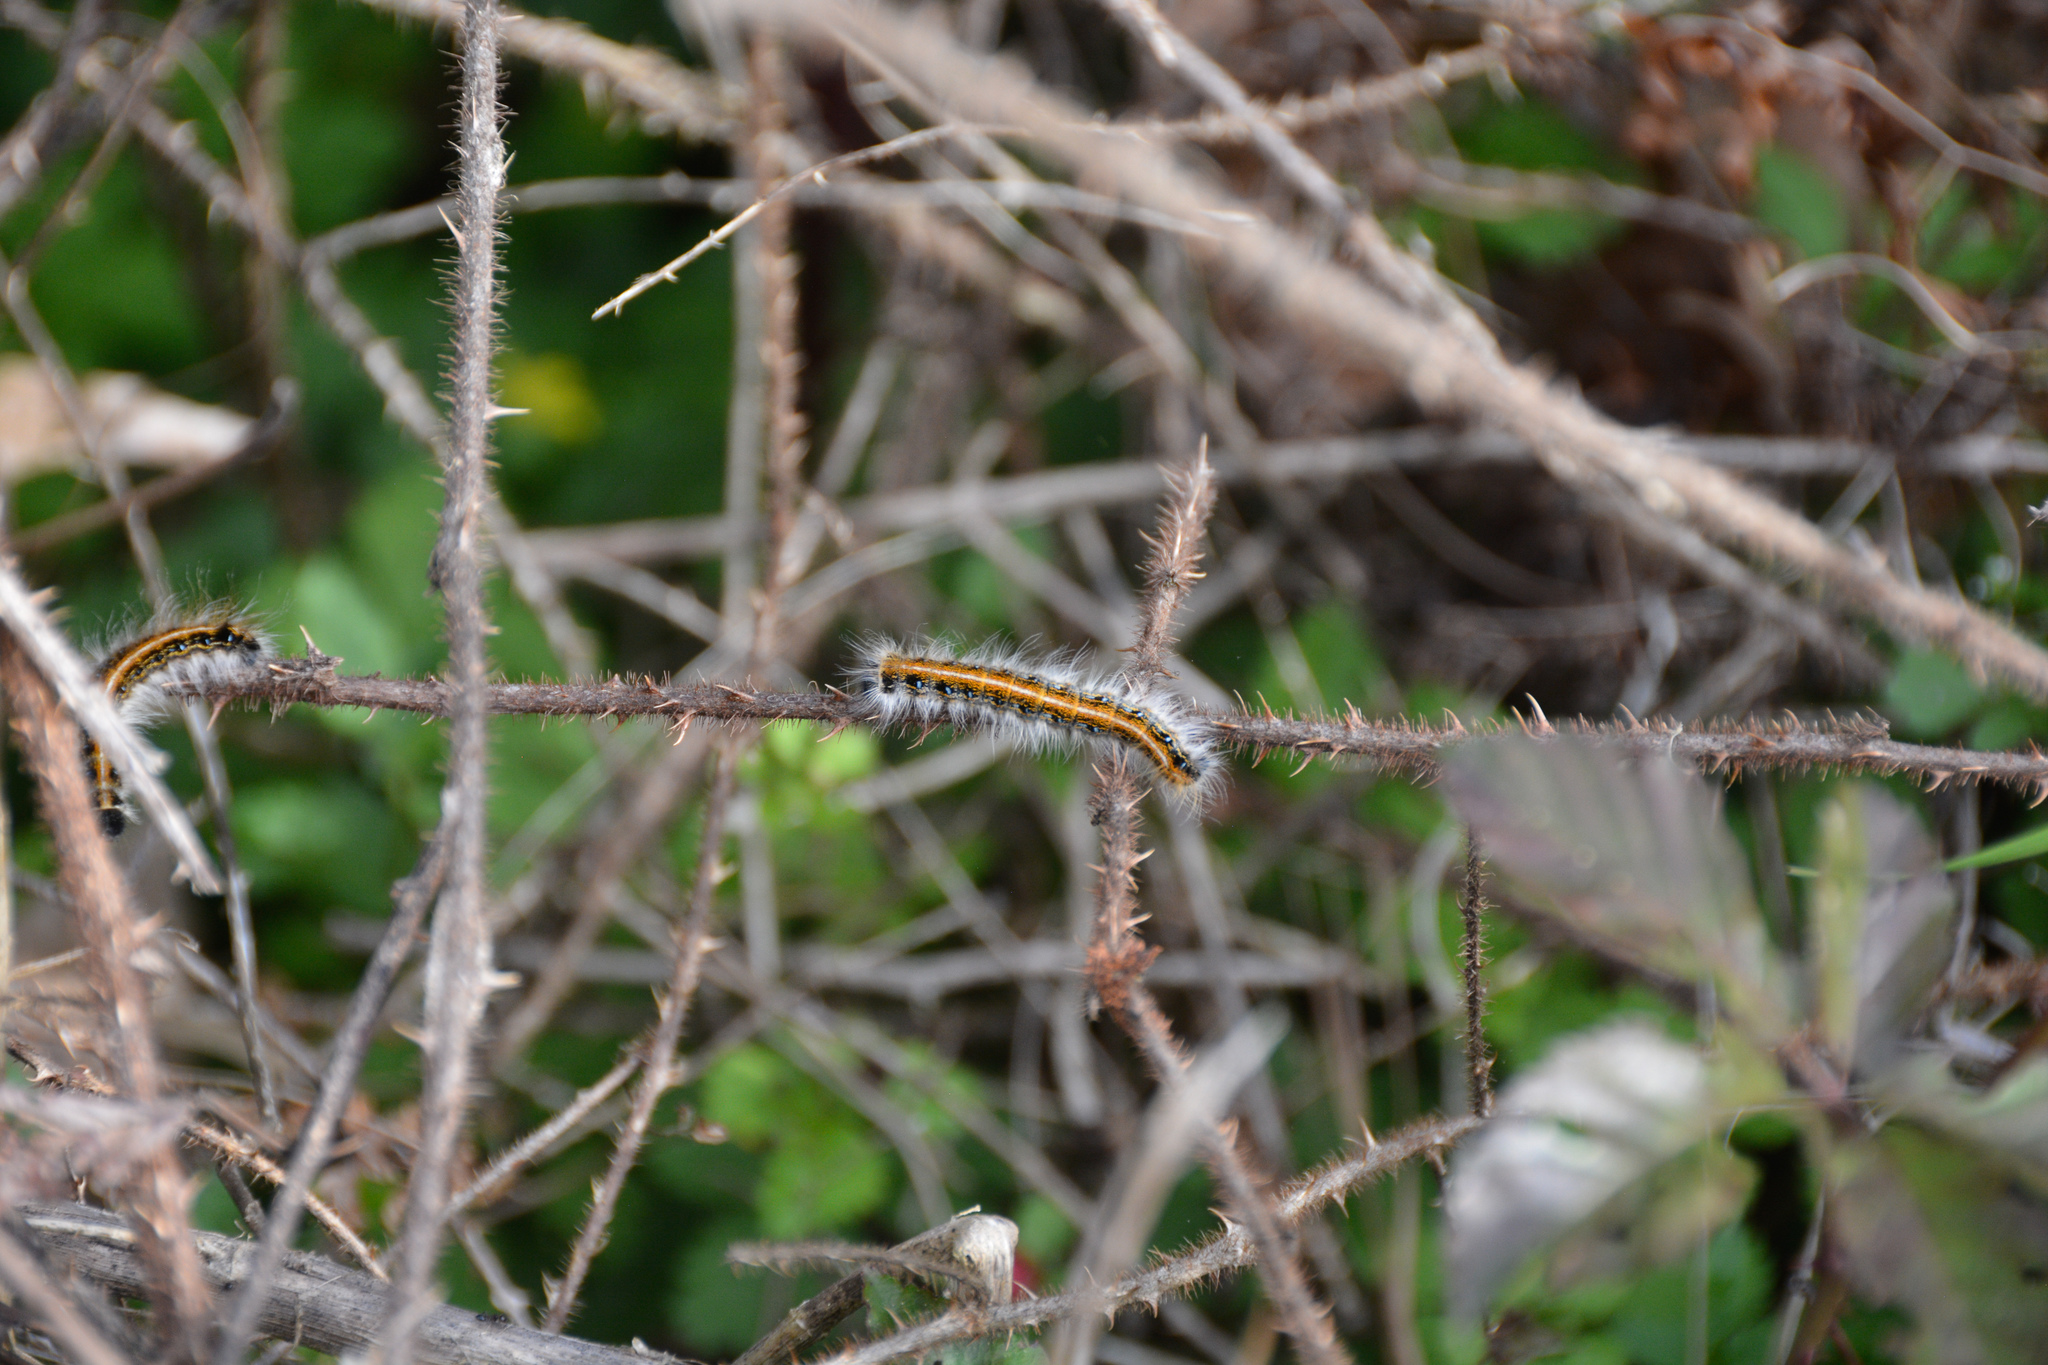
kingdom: Animalia
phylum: Arthropoda
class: Insecta
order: Lepidoptera
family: Lasiocampidae
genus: Malacosoma
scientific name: Malacosoma americana
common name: Eastern tent caterpillar moth
